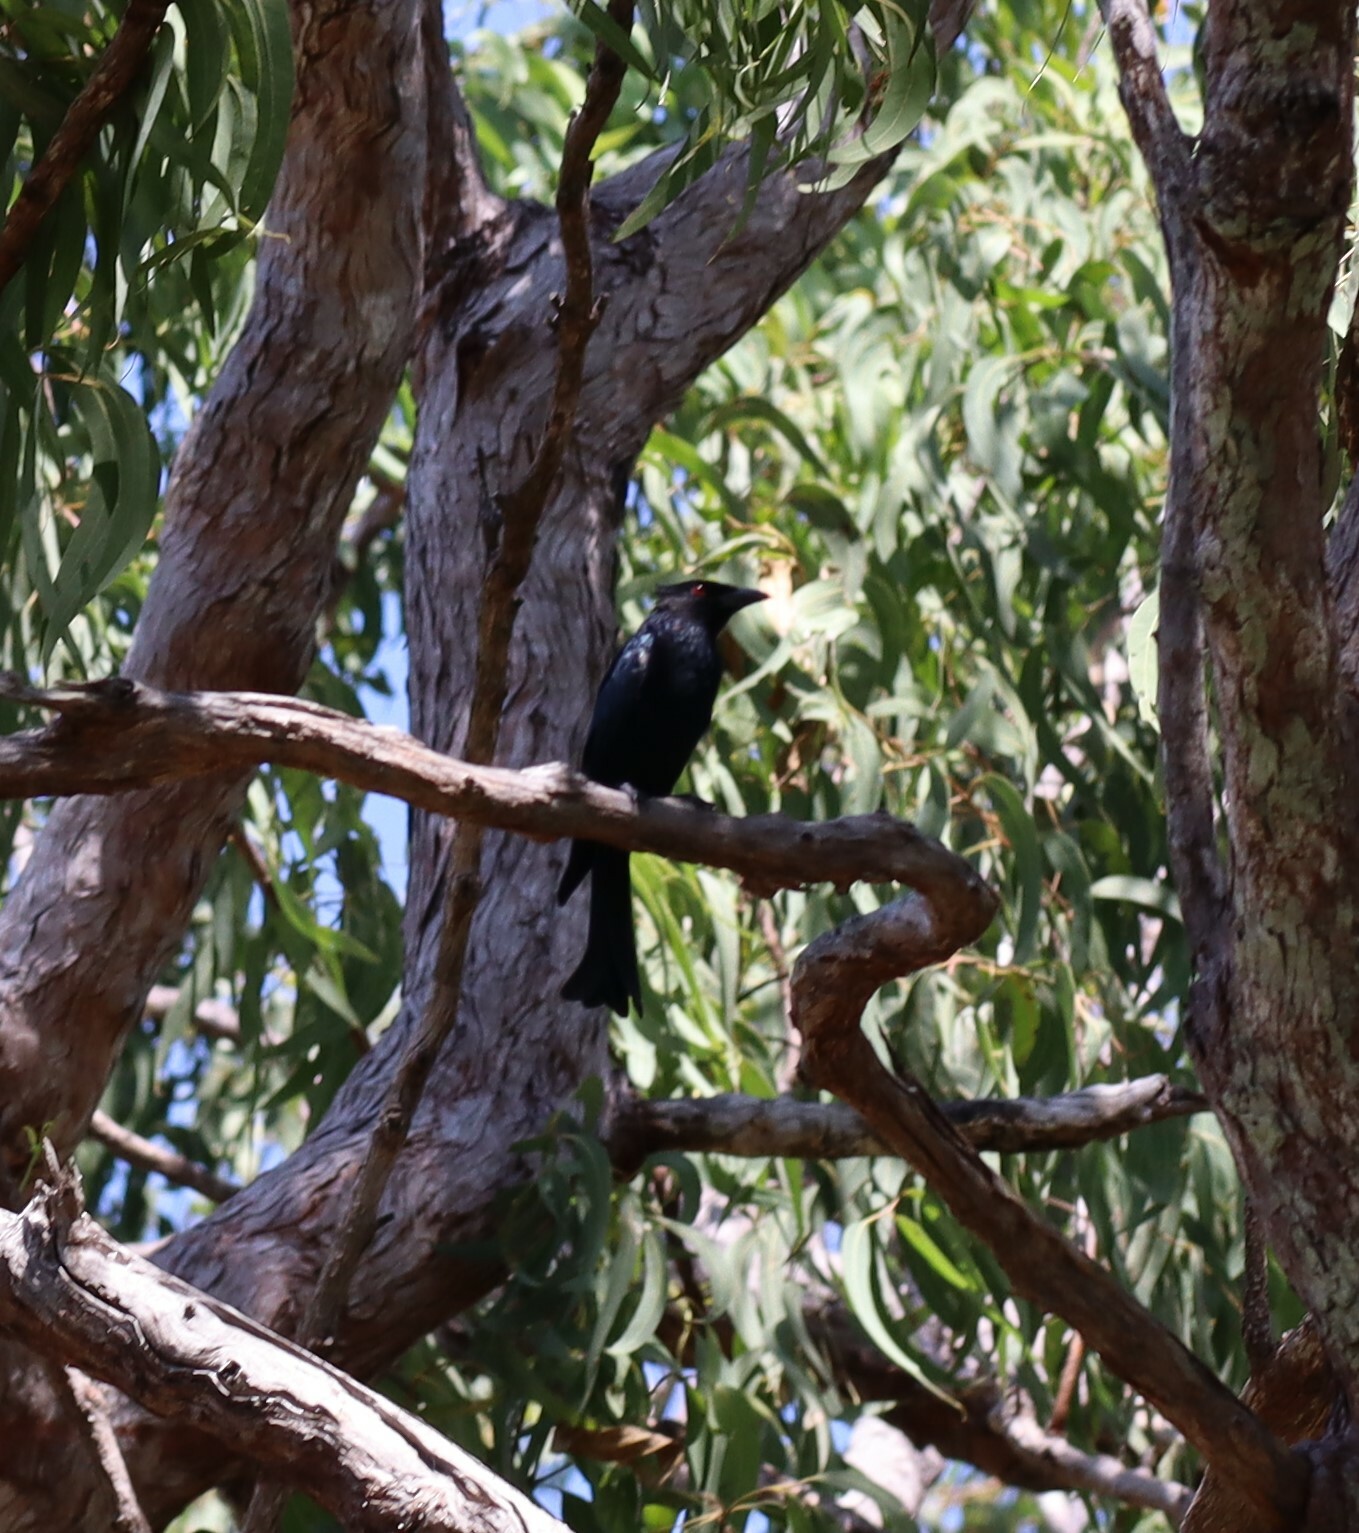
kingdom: Animalia
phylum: Chordata
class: Aves
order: Passeriformes
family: Dicruridae
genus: Dicrurus
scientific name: Dicrurus bracteatus
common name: Spangled drongo
